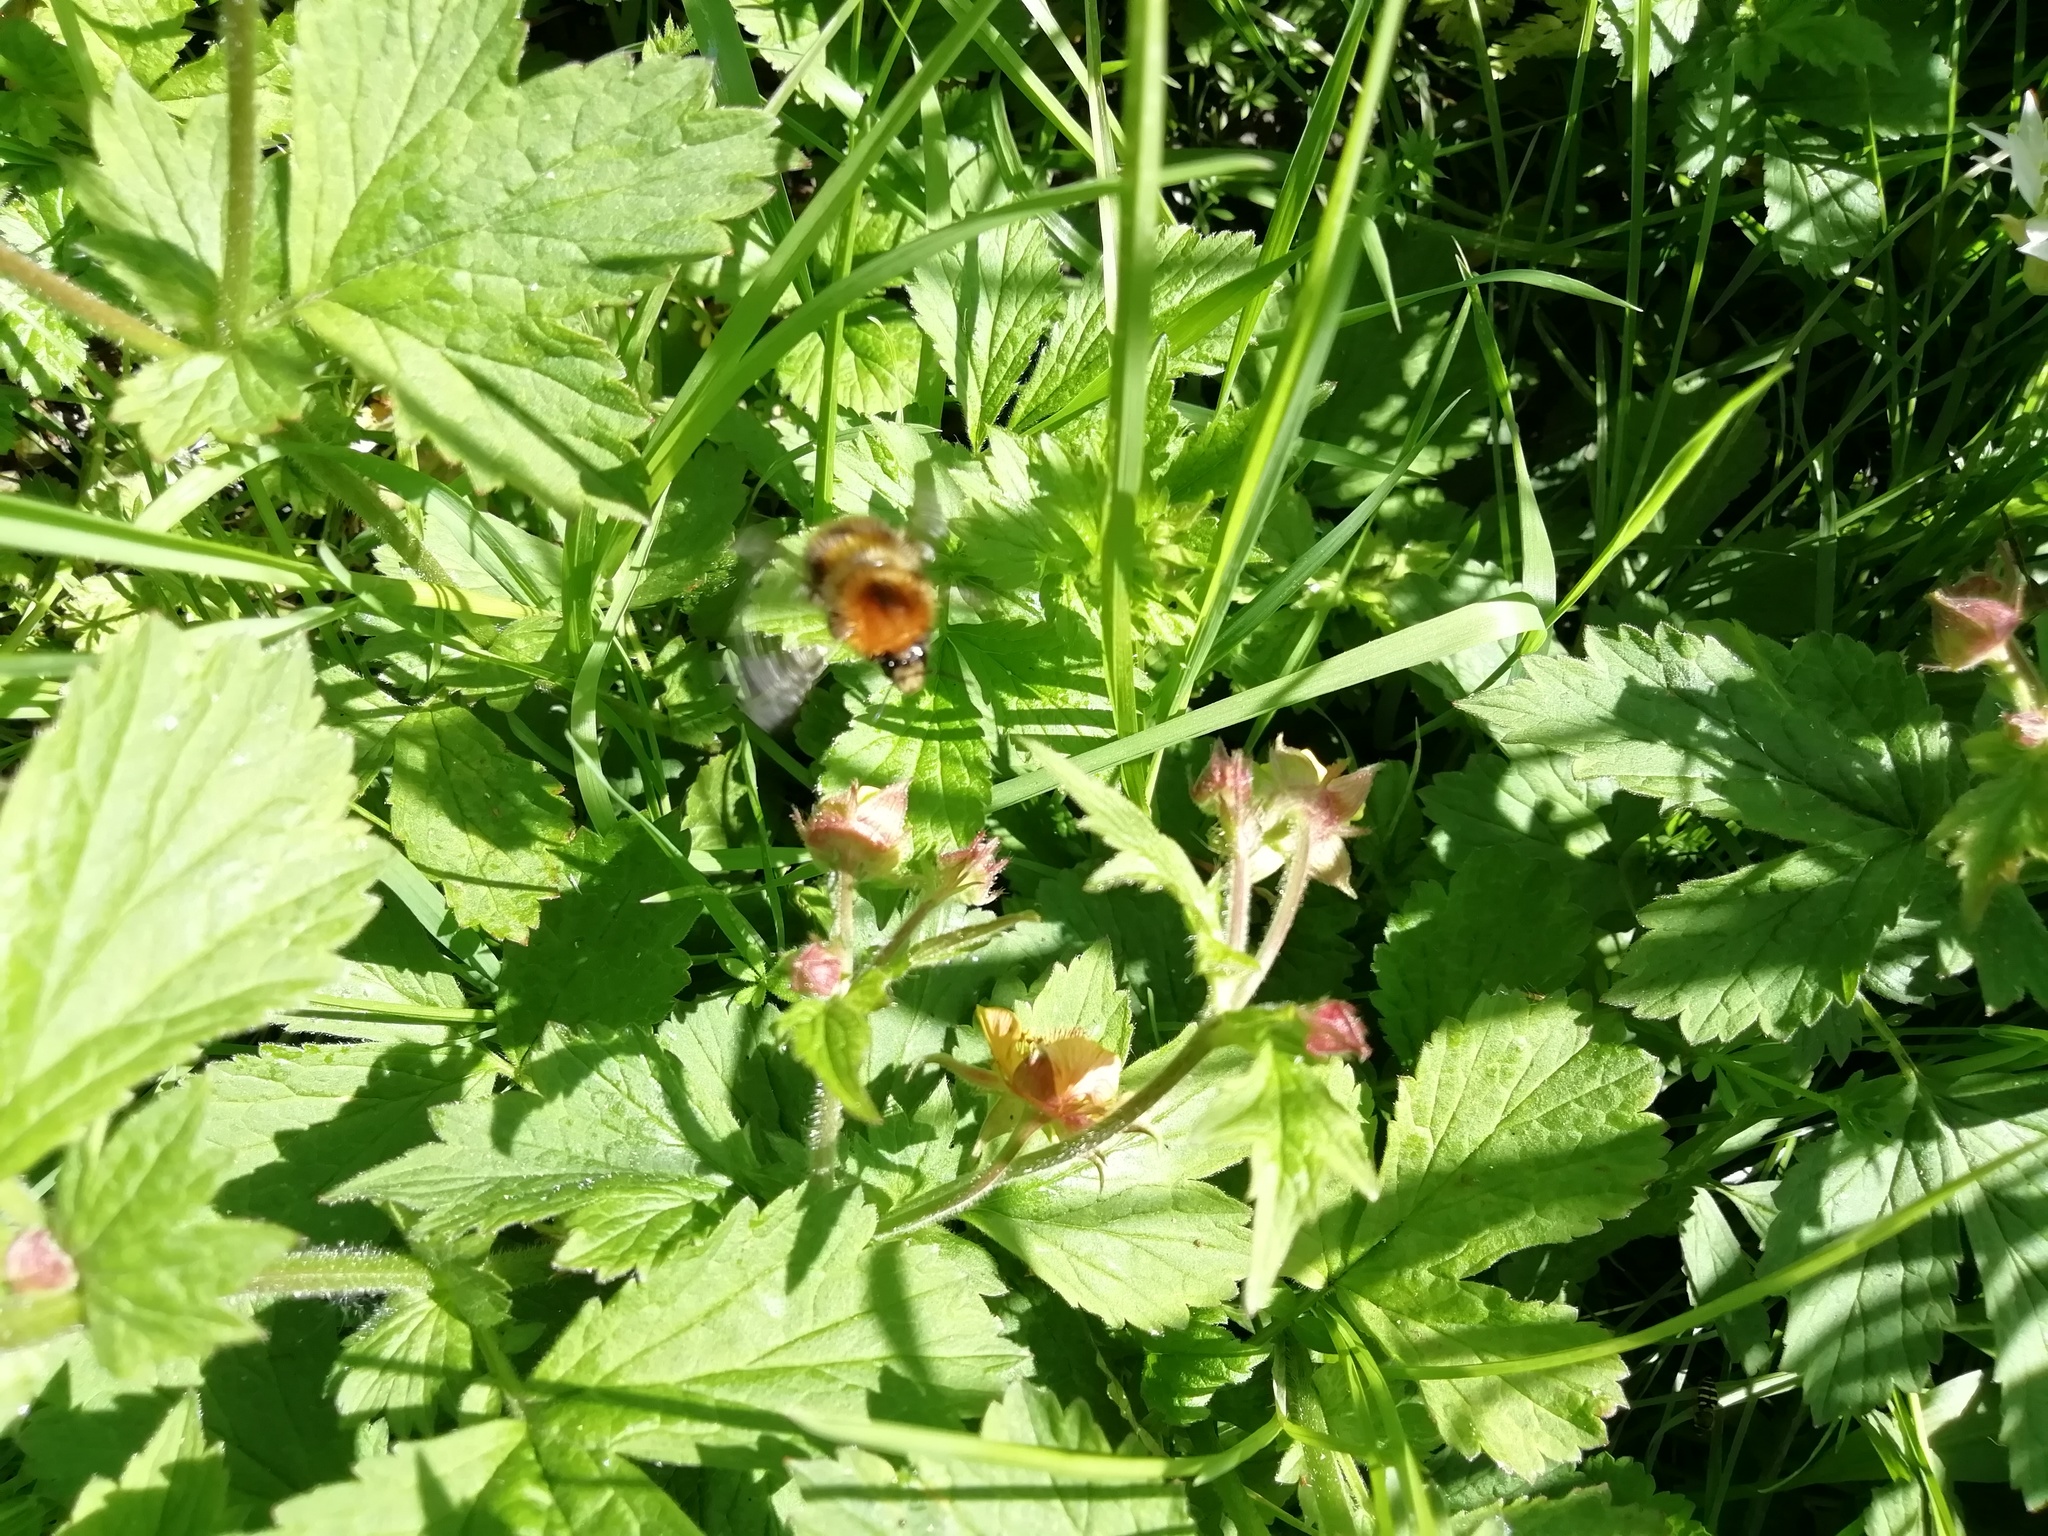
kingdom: Animalia
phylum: Arthropoda
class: Insecta
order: Hymenoptera
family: Apidae
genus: Bombus
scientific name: Bombus pascuorum
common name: Common carder bee
